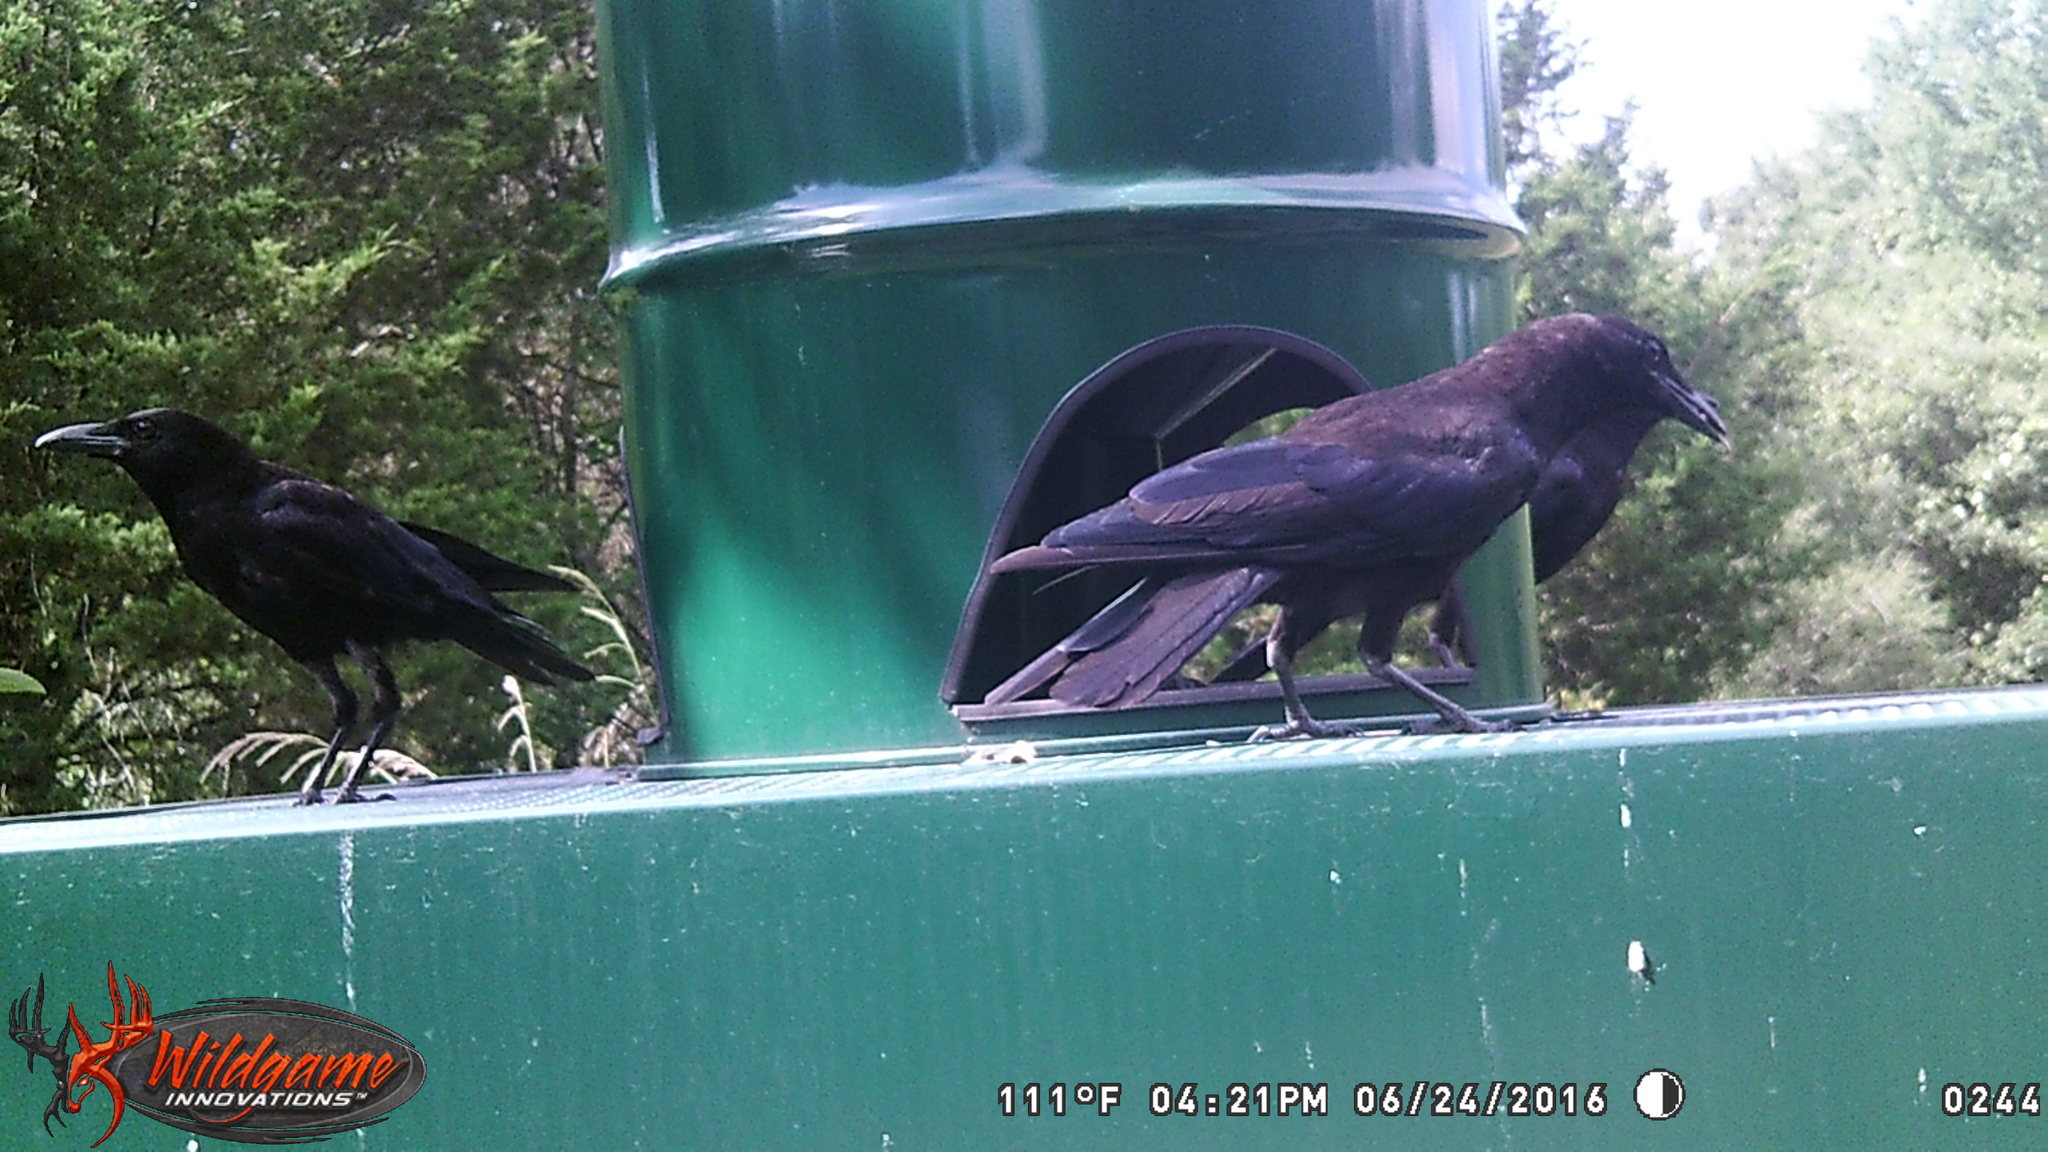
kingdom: Animalia
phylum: Chordata
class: Aves
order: Passeriformes
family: Corvidae
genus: Corvus
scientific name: Corvus brachyrhynchos
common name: American crow
